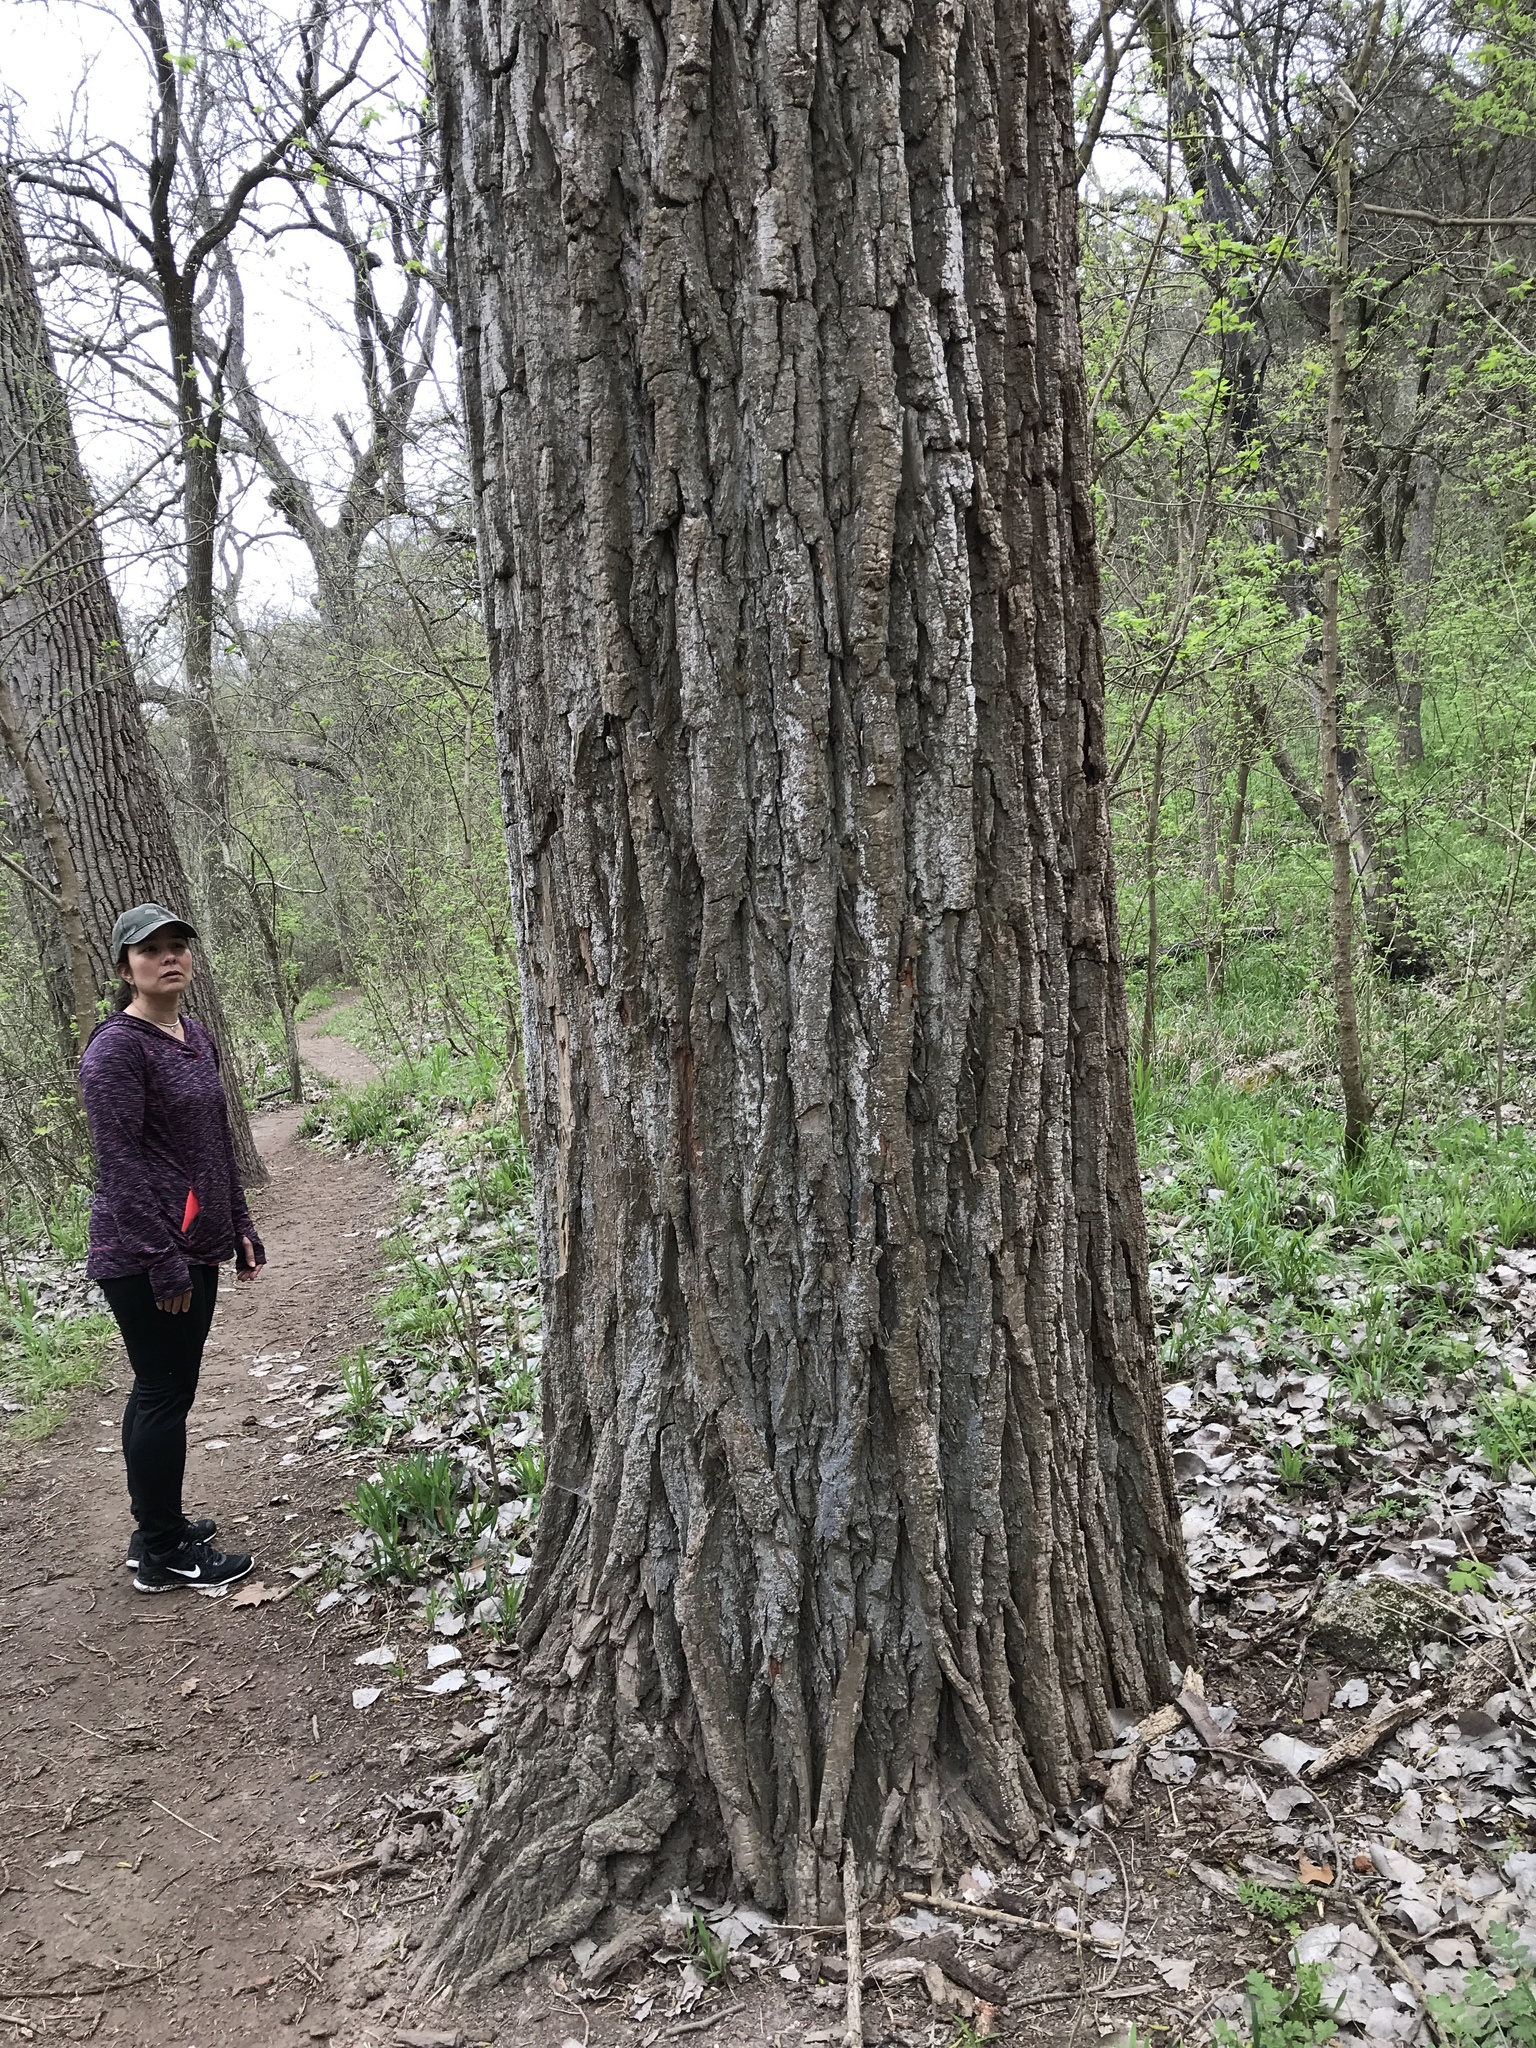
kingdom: Plantae
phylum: Tracheophyta
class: Magnoliopsida
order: Malpighiales
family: Salicaceae
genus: Populus
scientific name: Populus deltoides
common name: Eastern cottonwood
